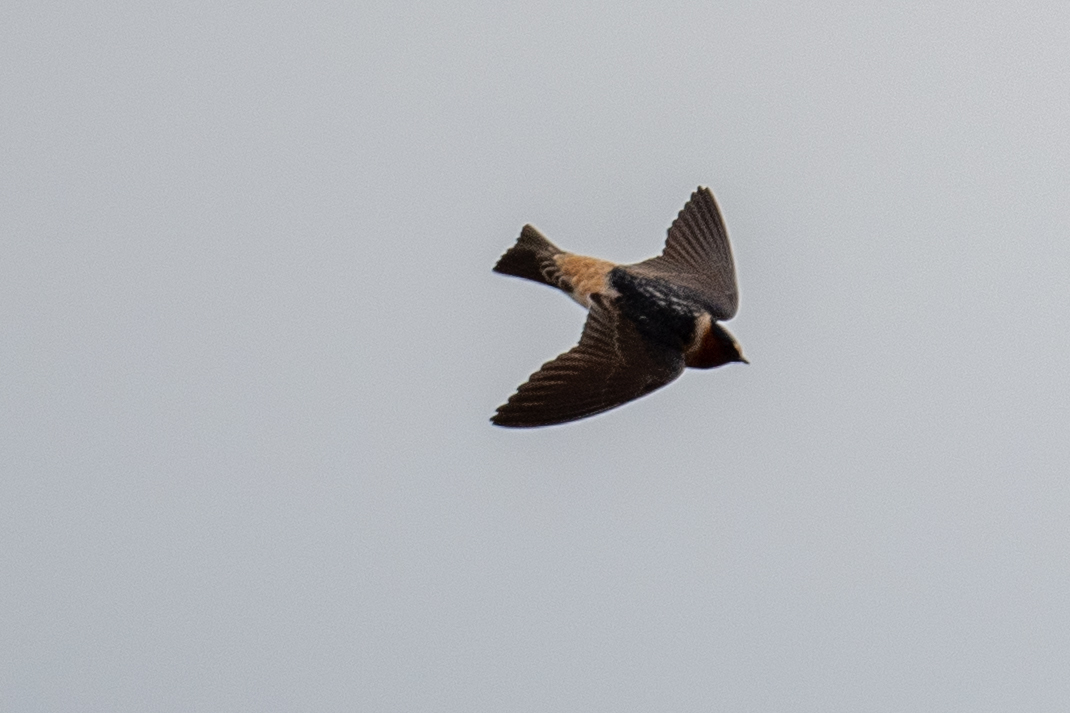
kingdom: Animalia
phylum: Chordata
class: Aves
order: Passeriformes
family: Hirundinidae
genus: Petrochelidon
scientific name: Petrochelidon pyrrhonota
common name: American cliff swallow
